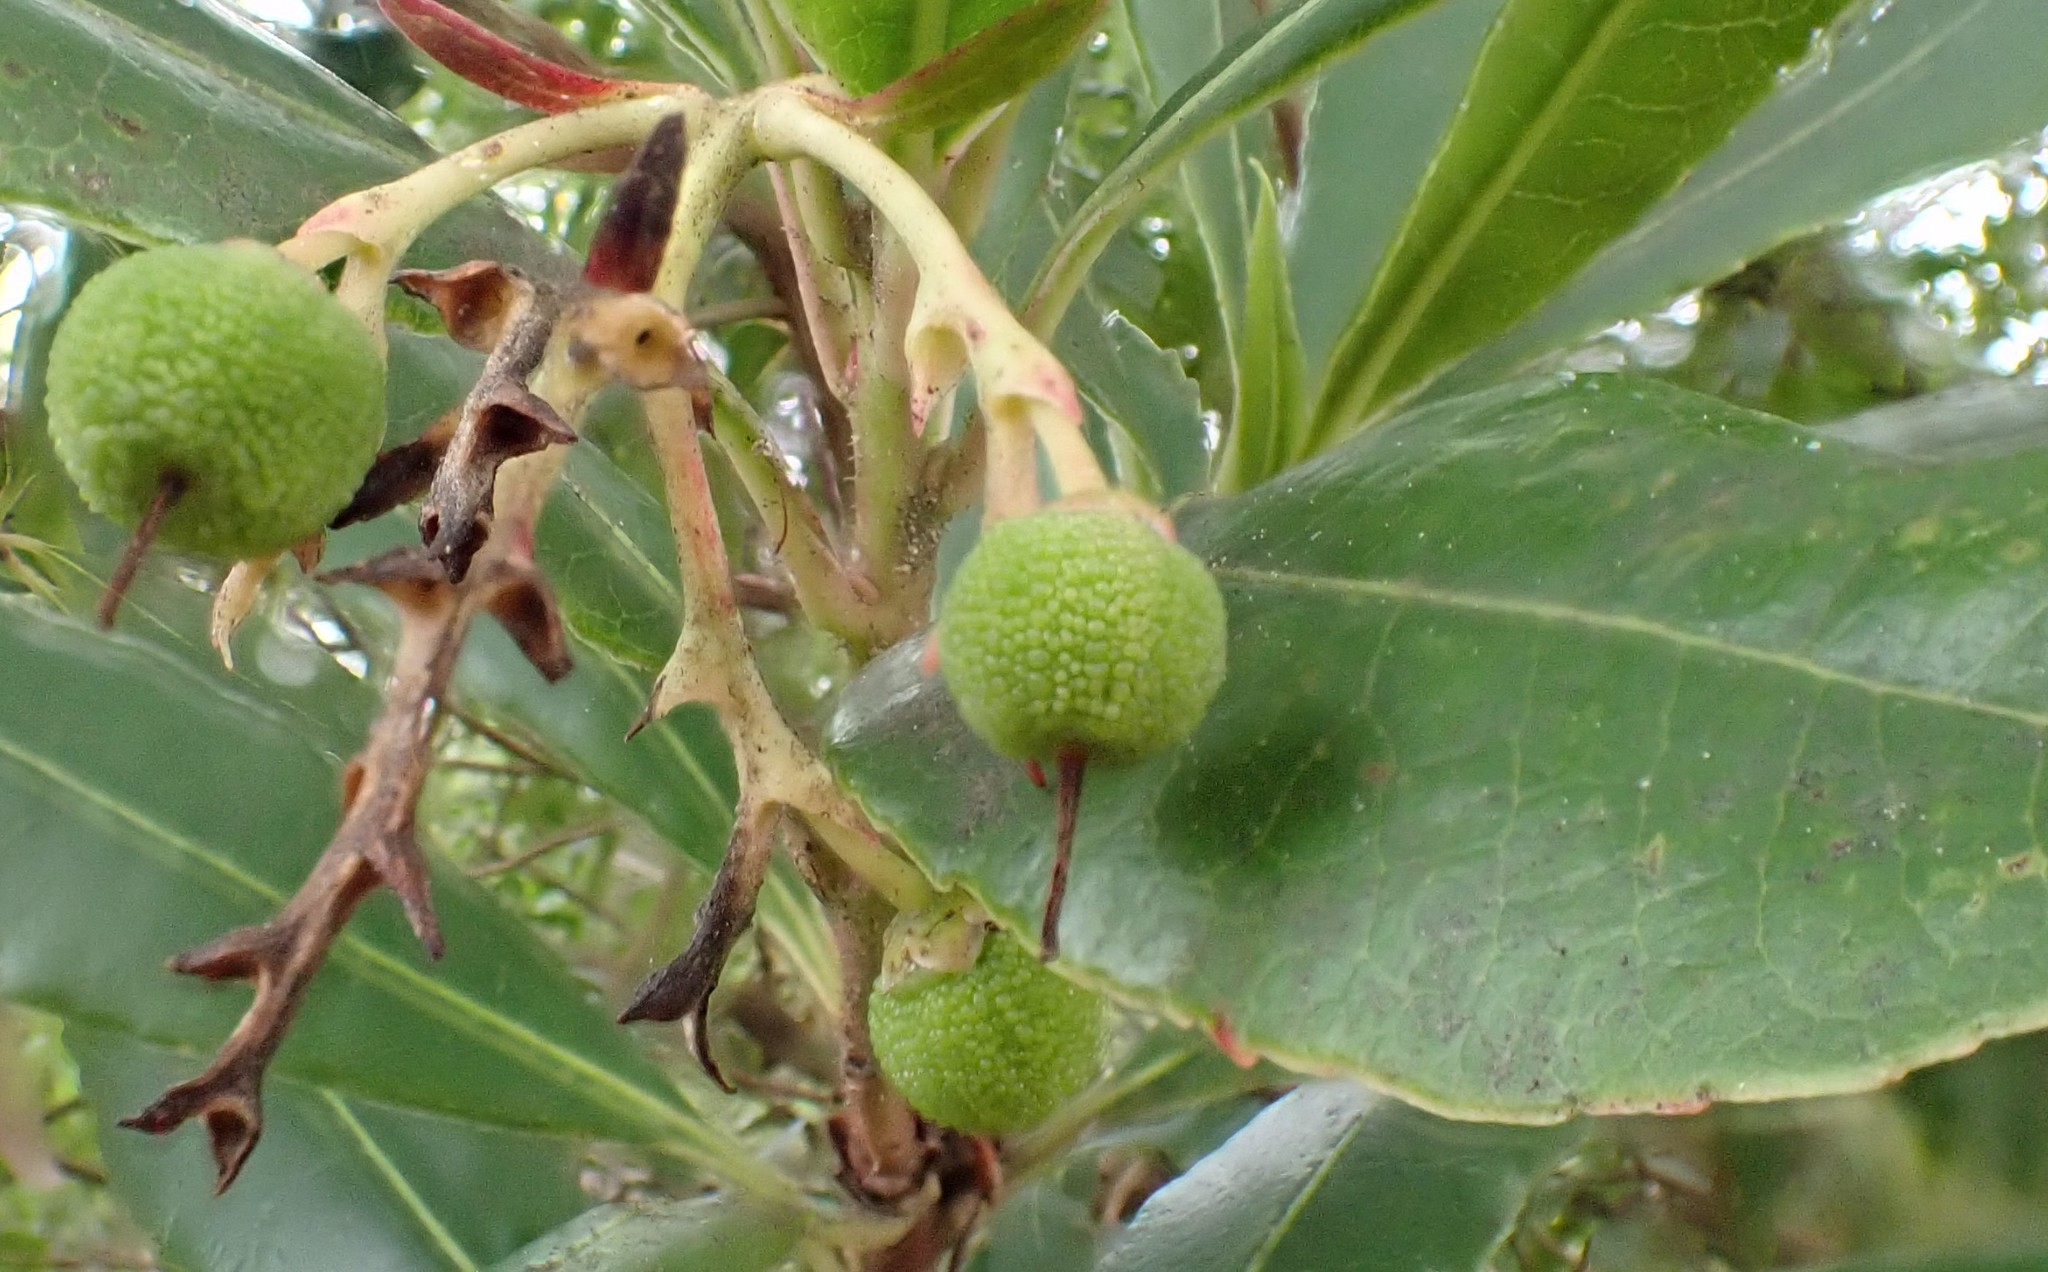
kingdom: Plantae
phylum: Tracheophyta
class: Magnoliopsida
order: Ericales
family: Ericaceae
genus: Arbutus
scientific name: Arbutus unedo
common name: Strawberry-tree
